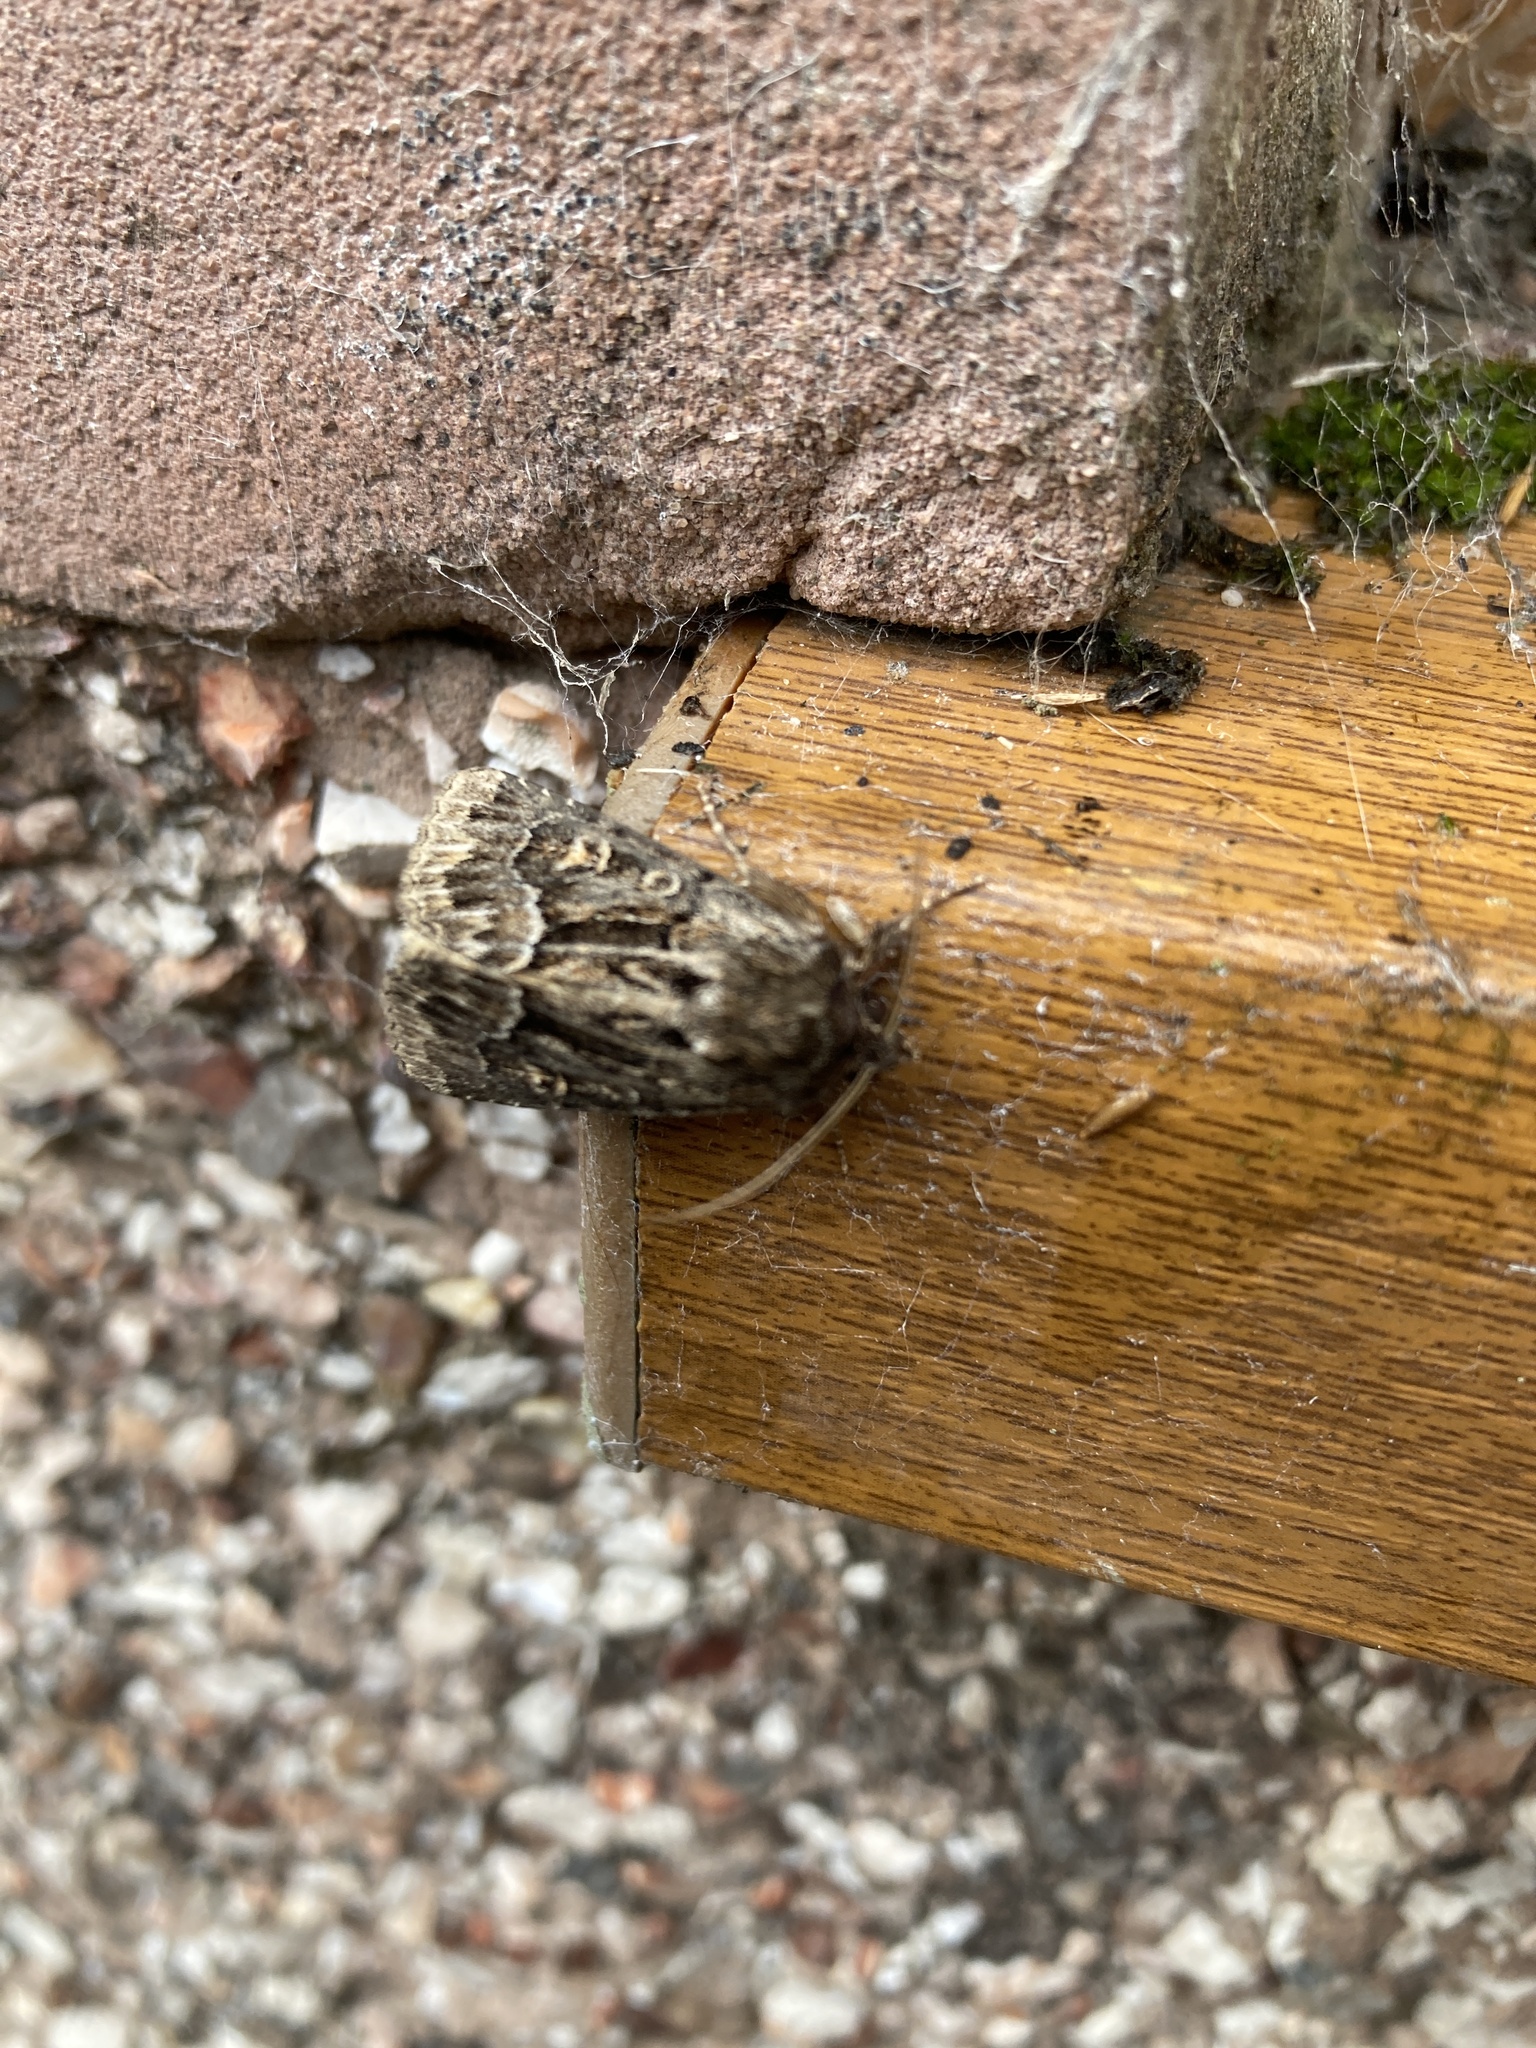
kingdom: Animalia
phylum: Arthropoda
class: Insecta
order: Lepidoptera
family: Noctuidae
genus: Thalpophila
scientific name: Thalpophila matura
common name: Straw underwing
